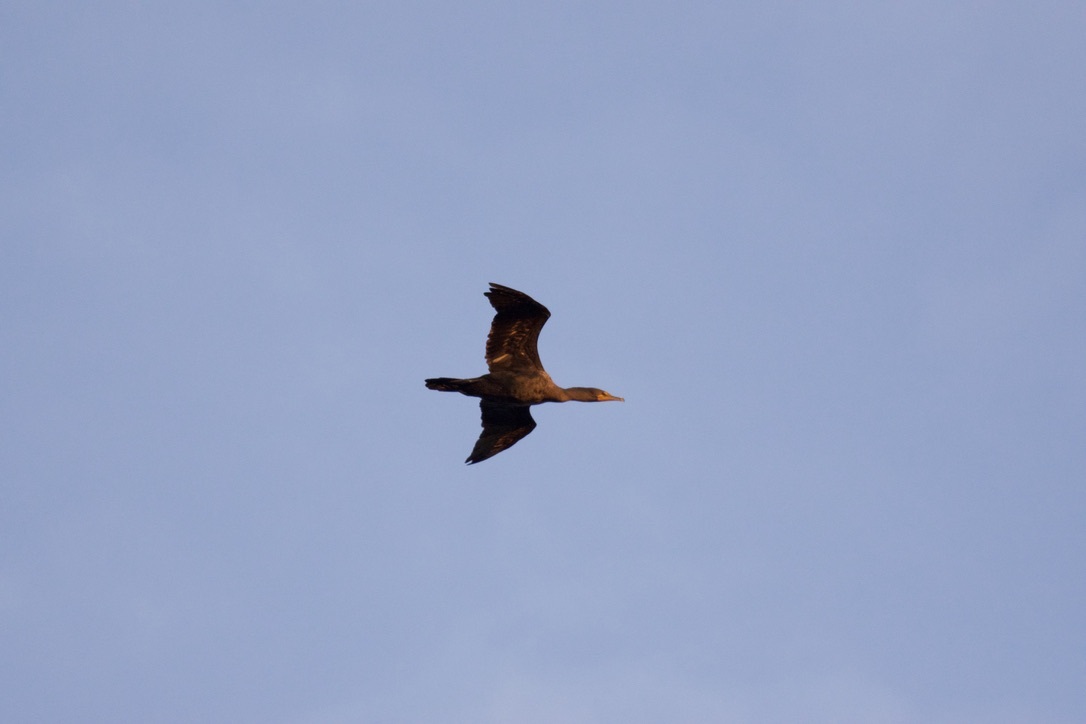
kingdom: Animalia
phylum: Chordata
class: Aves
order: Suliformes
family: Phalacrocoracidae
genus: Phalacrocorax
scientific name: Phalacrocorax auritus
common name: Double-crested cormorant
